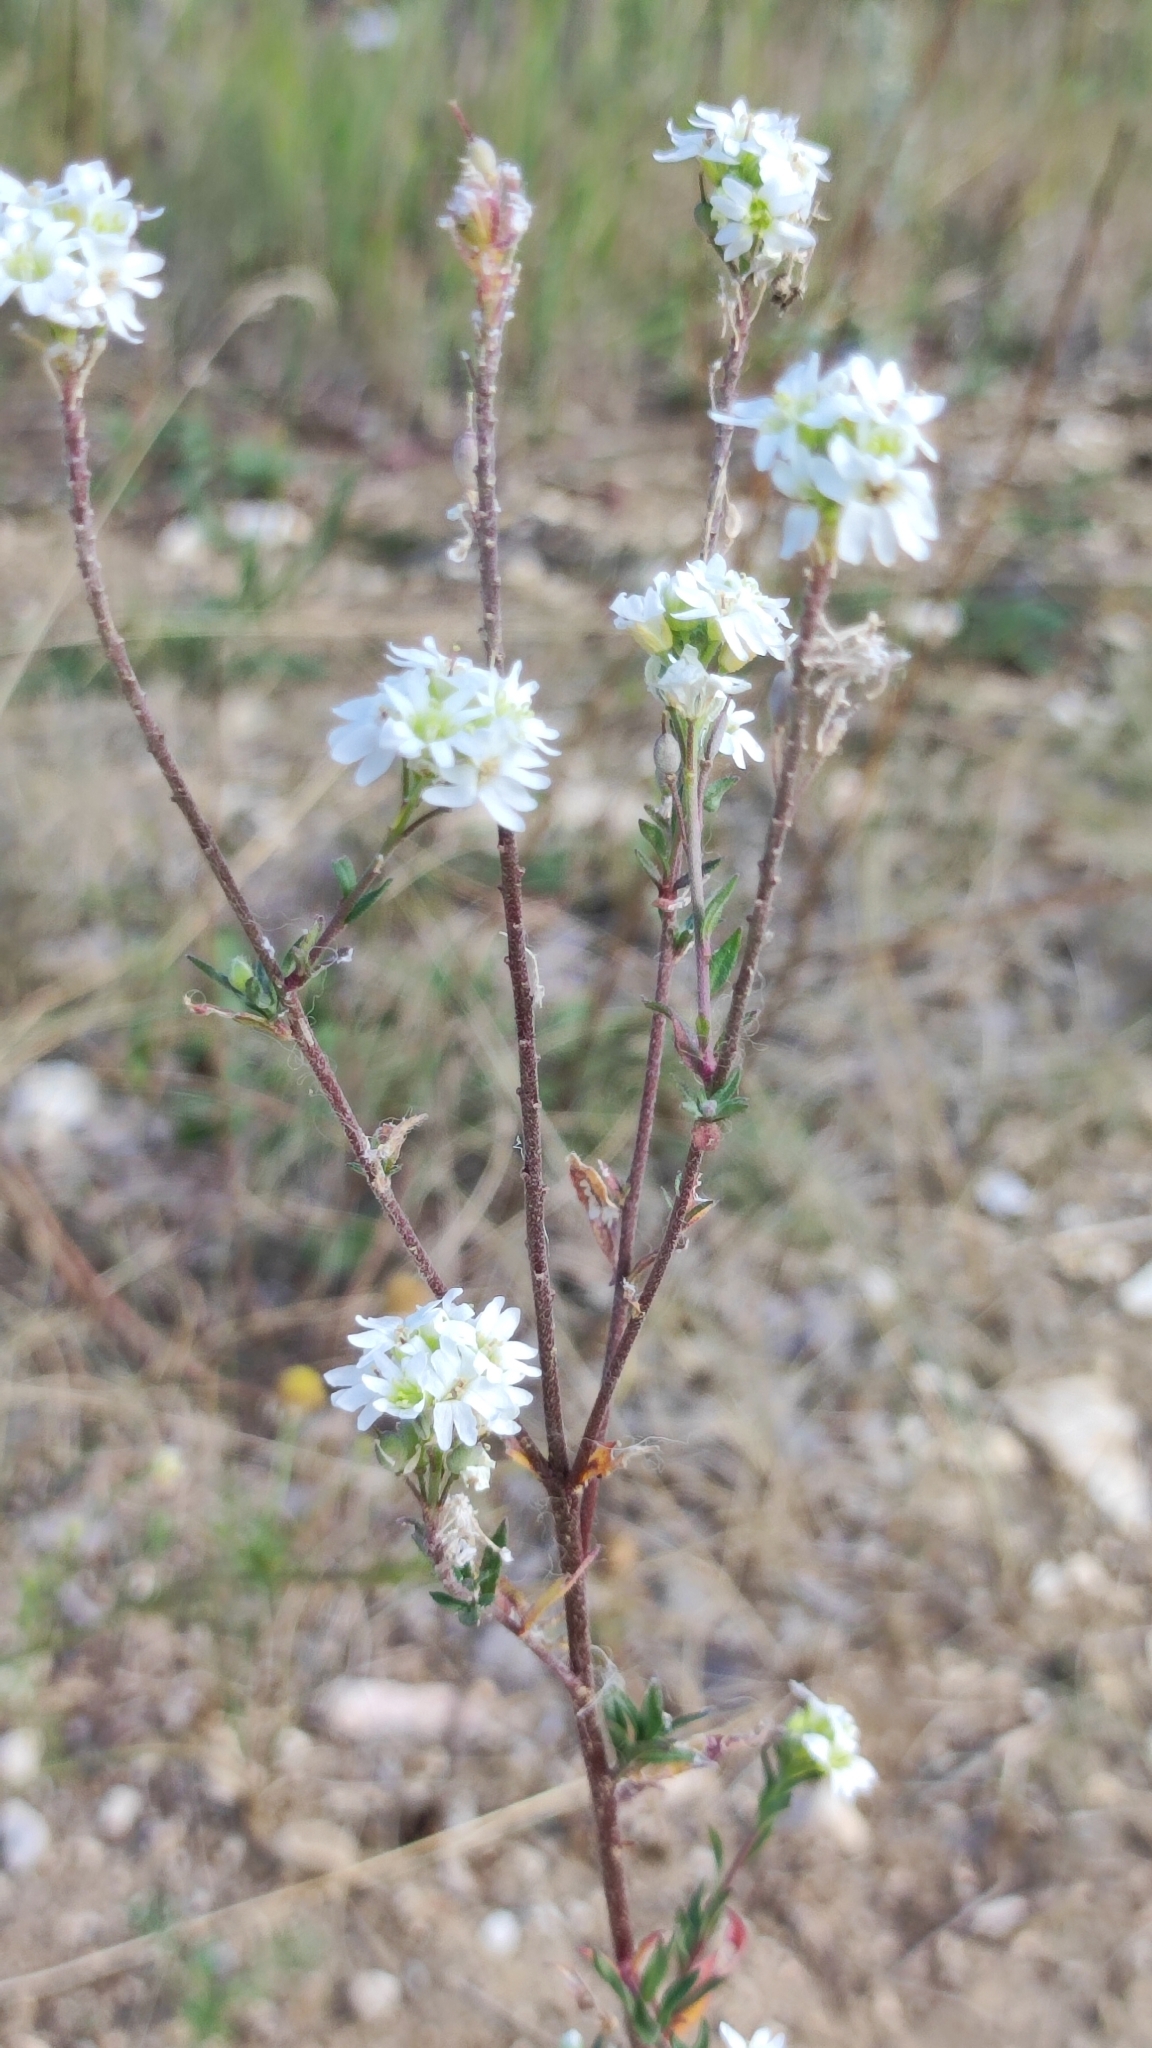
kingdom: Plantae
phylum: Tracheophyta
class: Magnoliopsida
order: Brassicales
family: Brassicaceae
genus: Berteroa
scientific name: Berteroa incana
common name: Hoary alison
